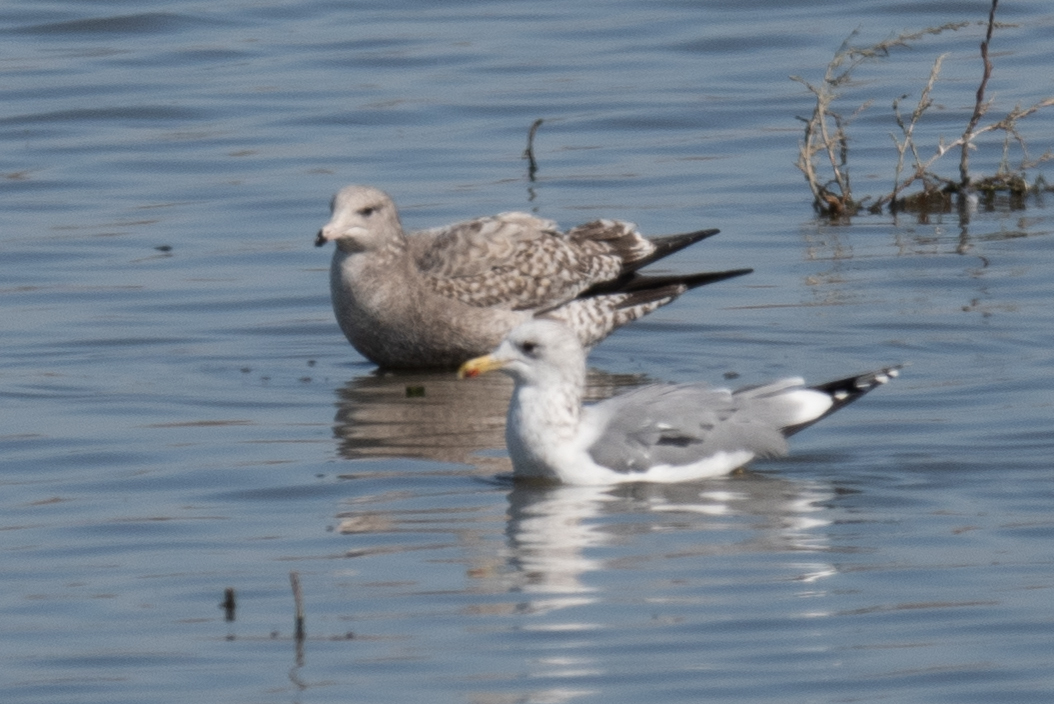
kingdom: Animalia
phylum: Chordata
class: Aves
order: Charadriiformes
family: Laridae
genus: Larus
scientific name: Larus californicus
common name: California gull
